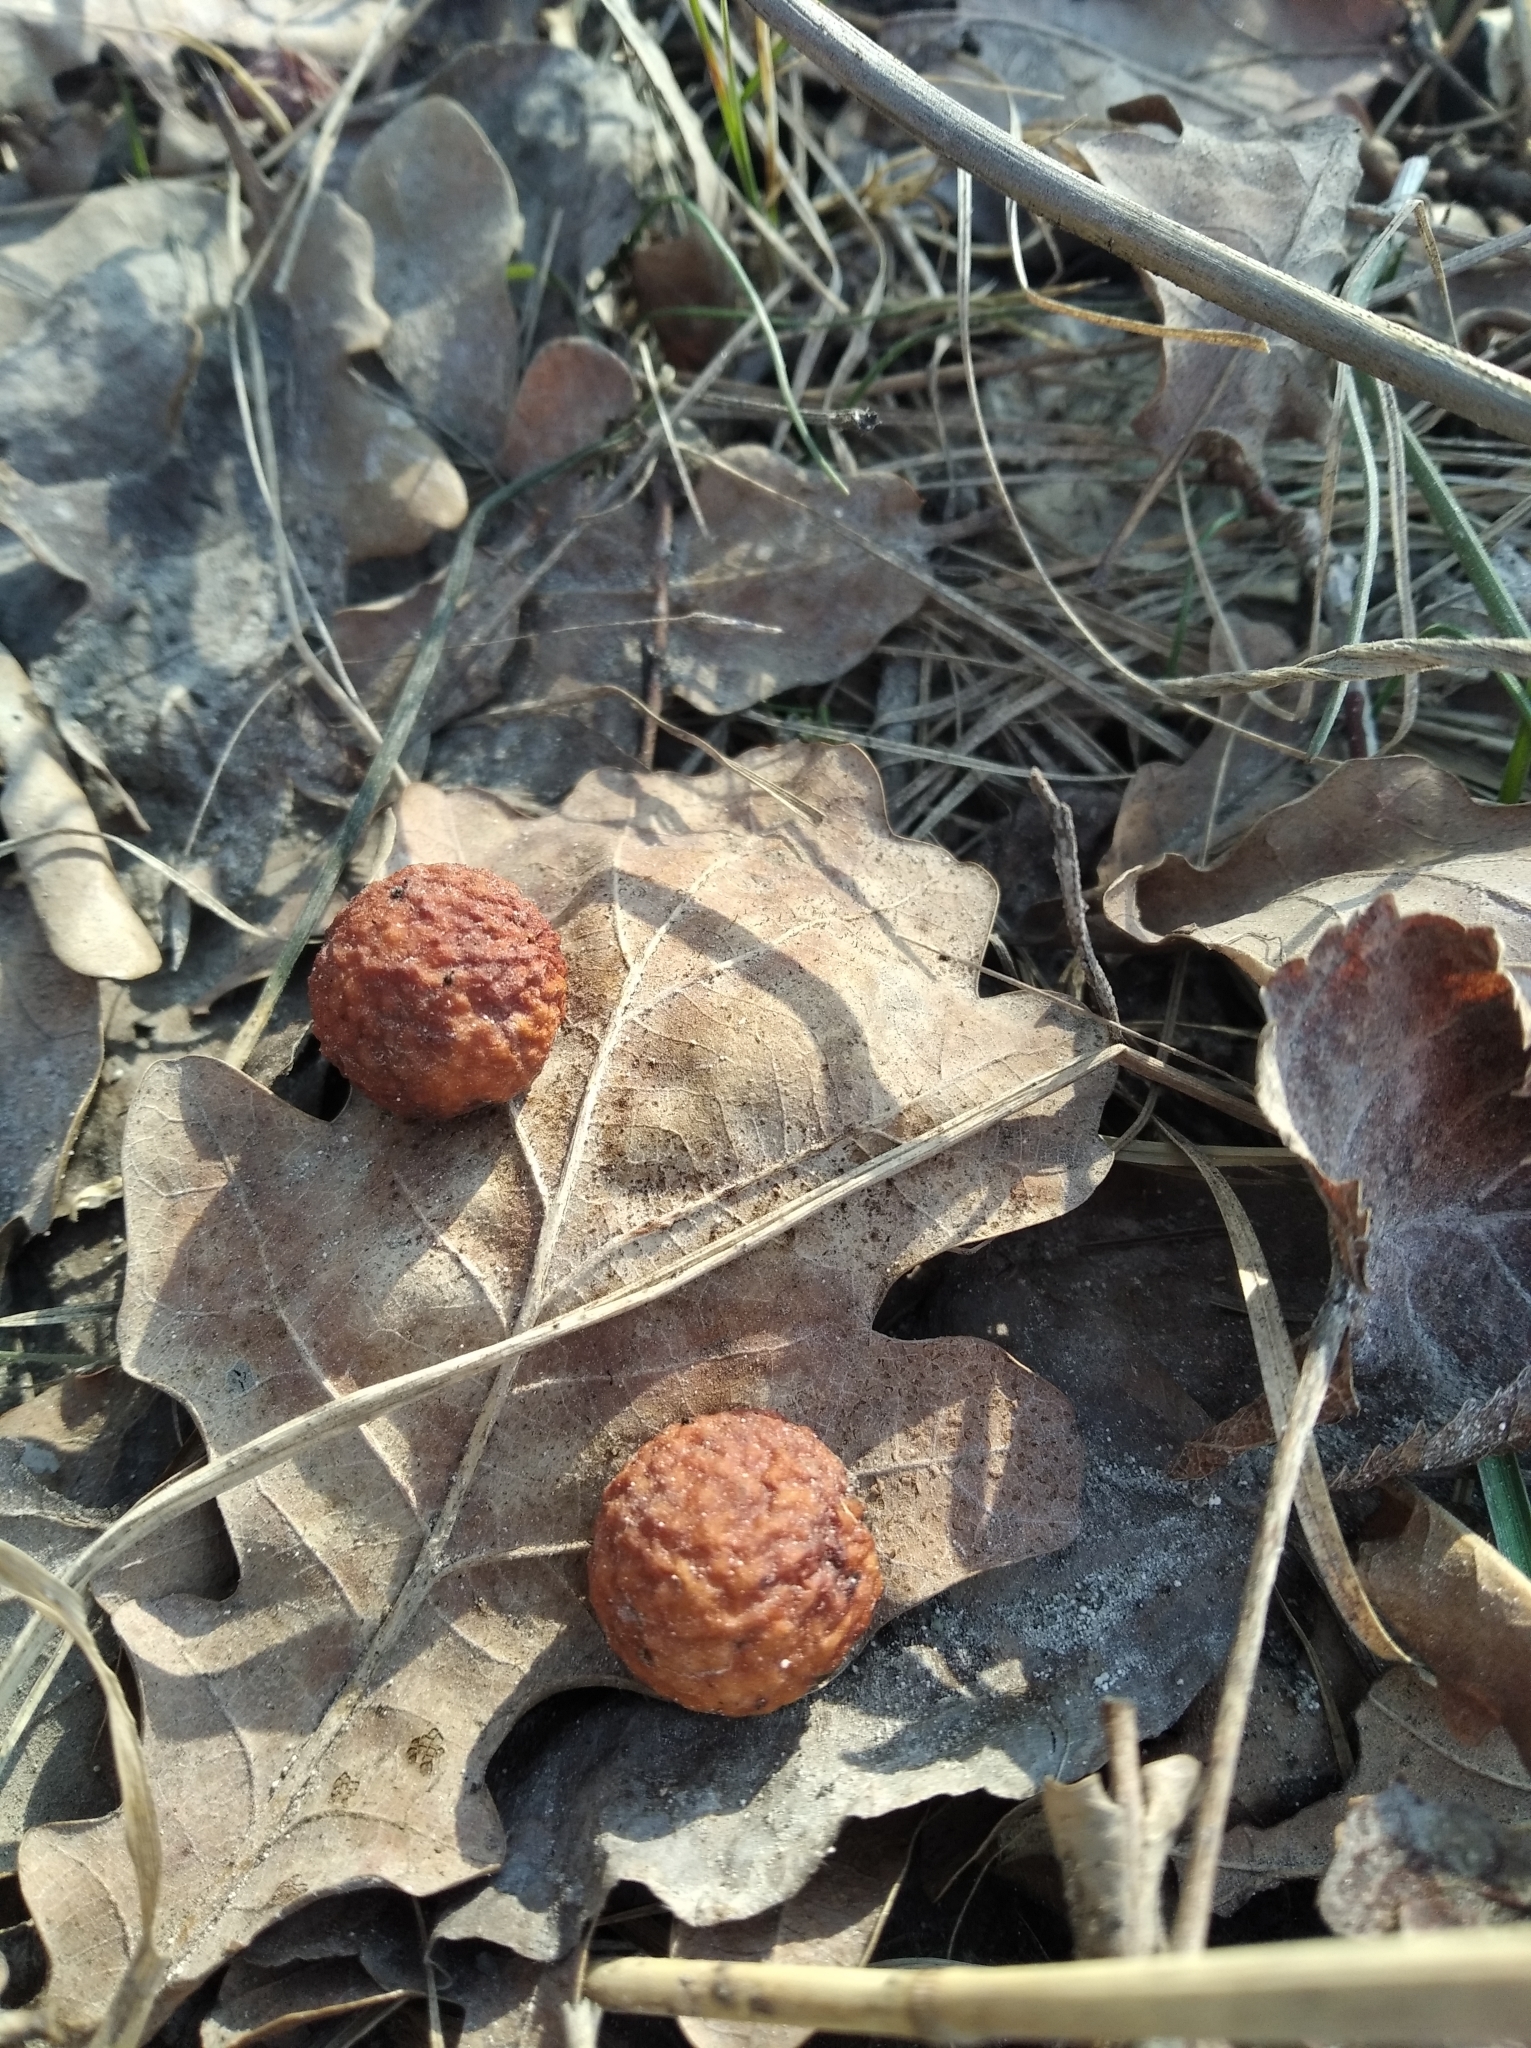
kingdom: Animalia
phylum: Arthropoda
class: Insecta
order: Hymenoptera
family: Cynipidae
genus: Cynips
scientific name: Cynips quercusfolii
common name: Cherry gall
